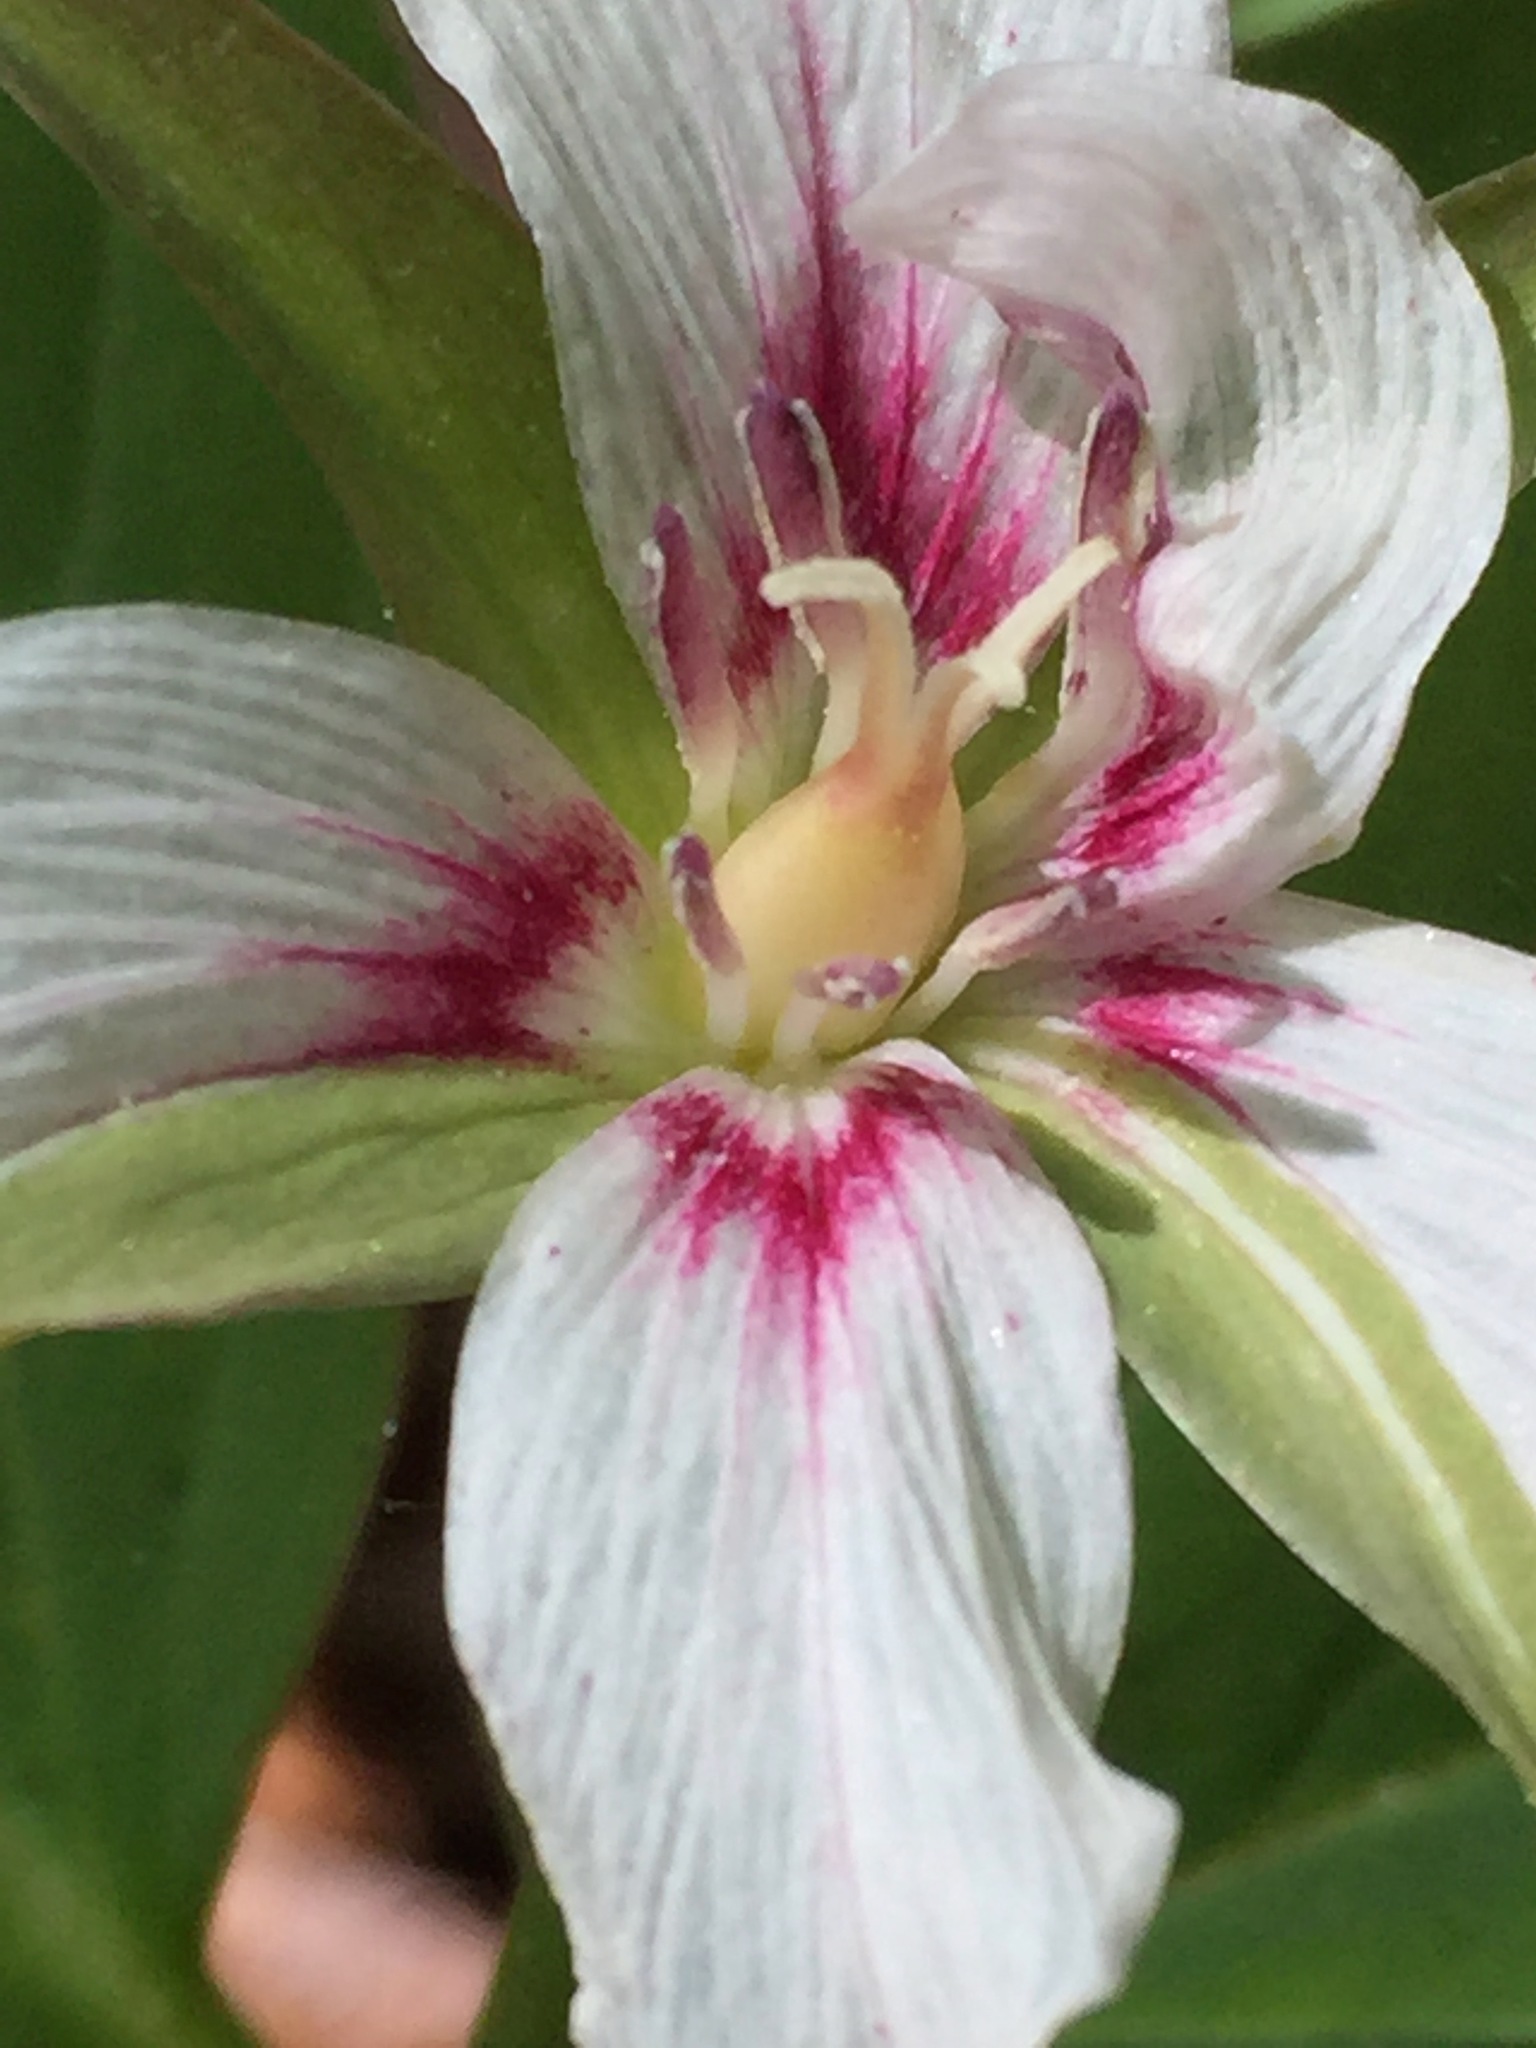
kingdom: Plantae
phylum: Tracheophyta
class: Liliopsida
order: Liliales
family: Melanthiaceae
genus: Trillium
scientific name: Trillium undulatum
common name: Paint trillium
